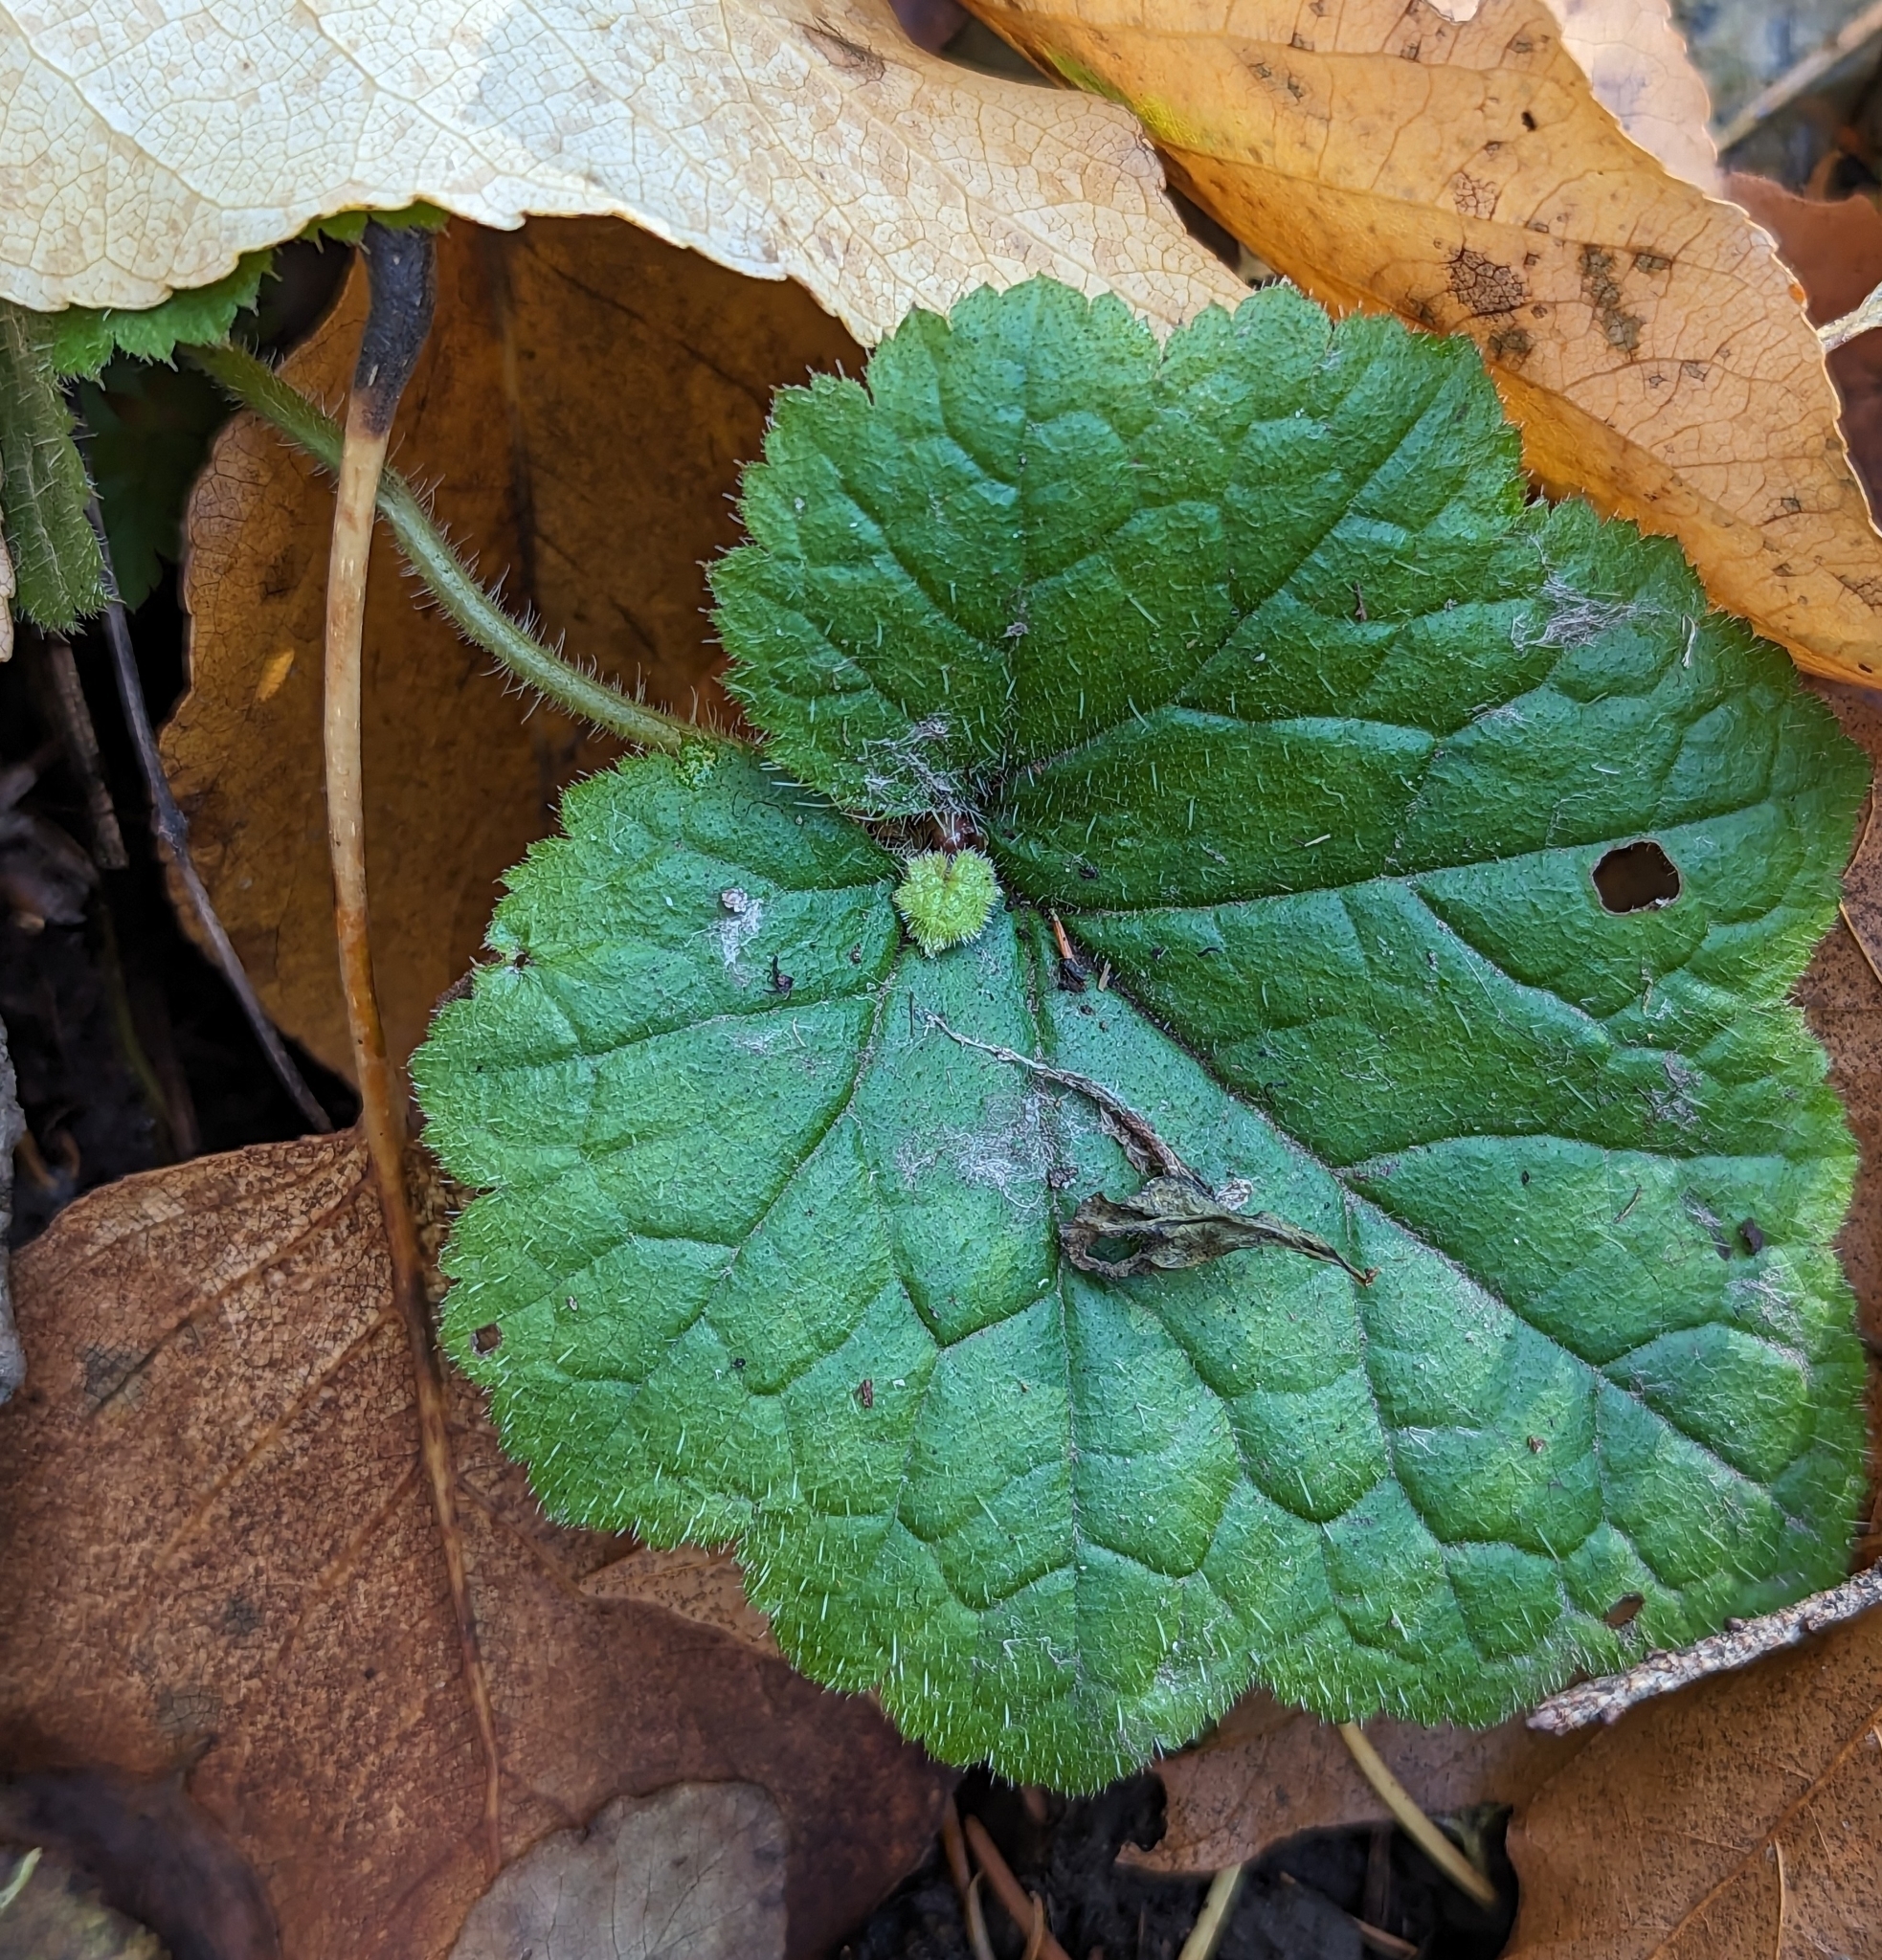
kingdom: Plantae
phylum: Tracheophyta
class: Magnoliopsida
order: Saxifragales
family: Saxifragaceae
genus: Tolmiea
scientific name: Tolmiea menziesii
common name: Pick-a-back-plant
